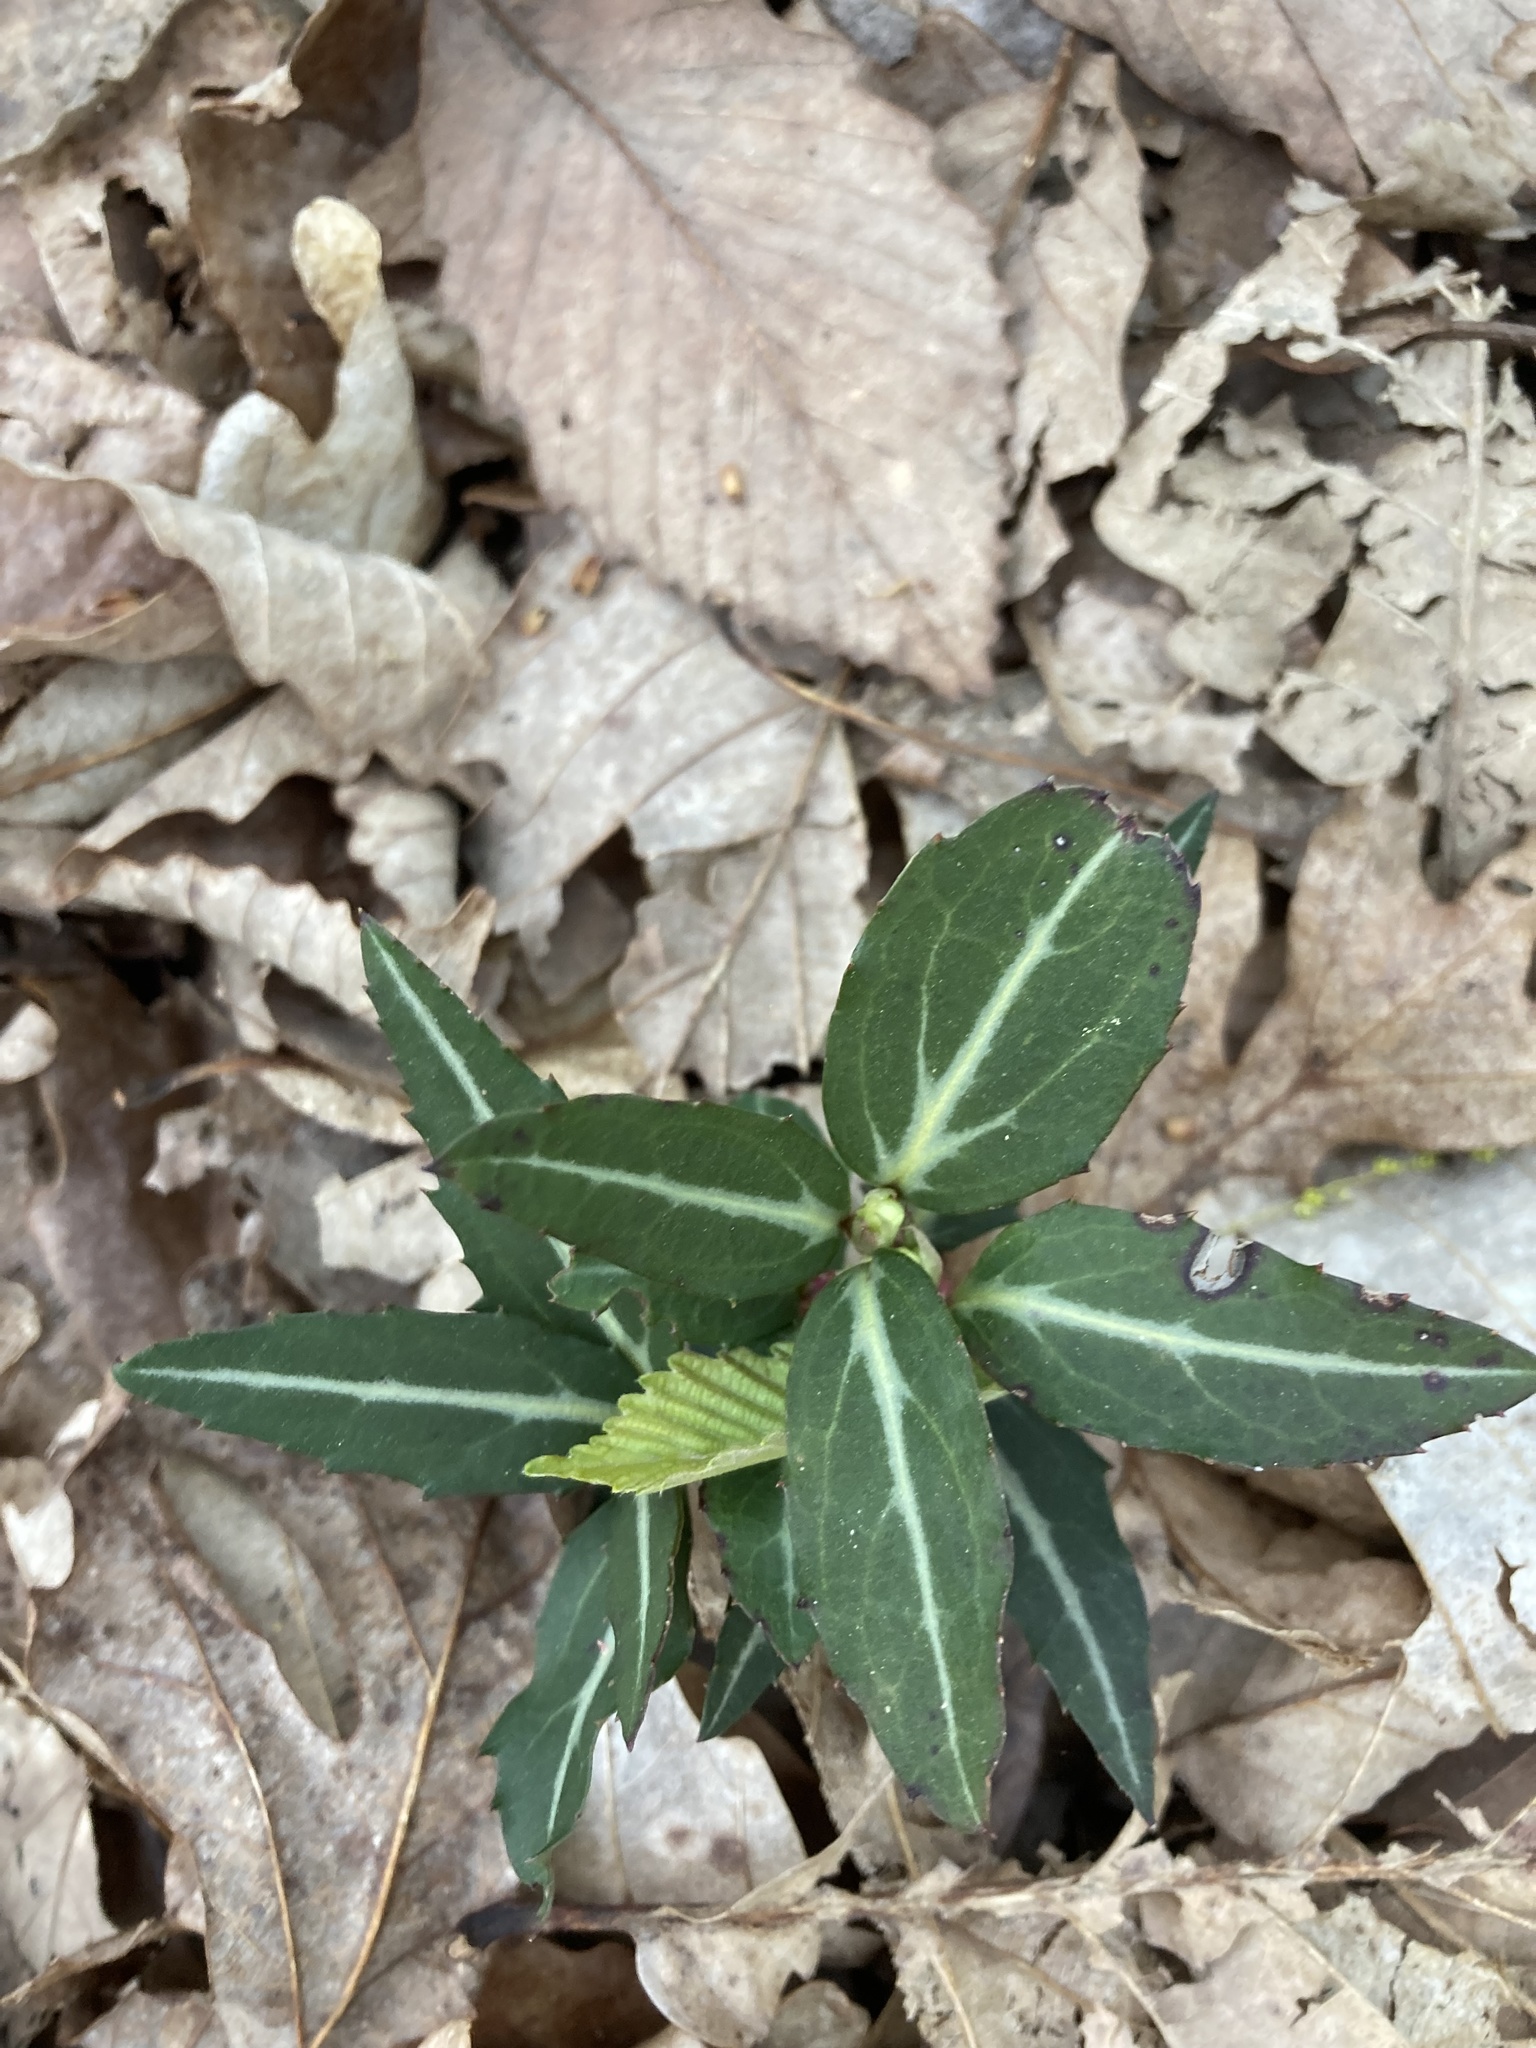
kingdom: Plantae
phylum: Tracheophyta
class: Magnoliopsida
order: Ericales
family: Ericaceae
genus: Chimaphila
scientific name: Chimaphila maculata
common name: Spotted pipsissewa
